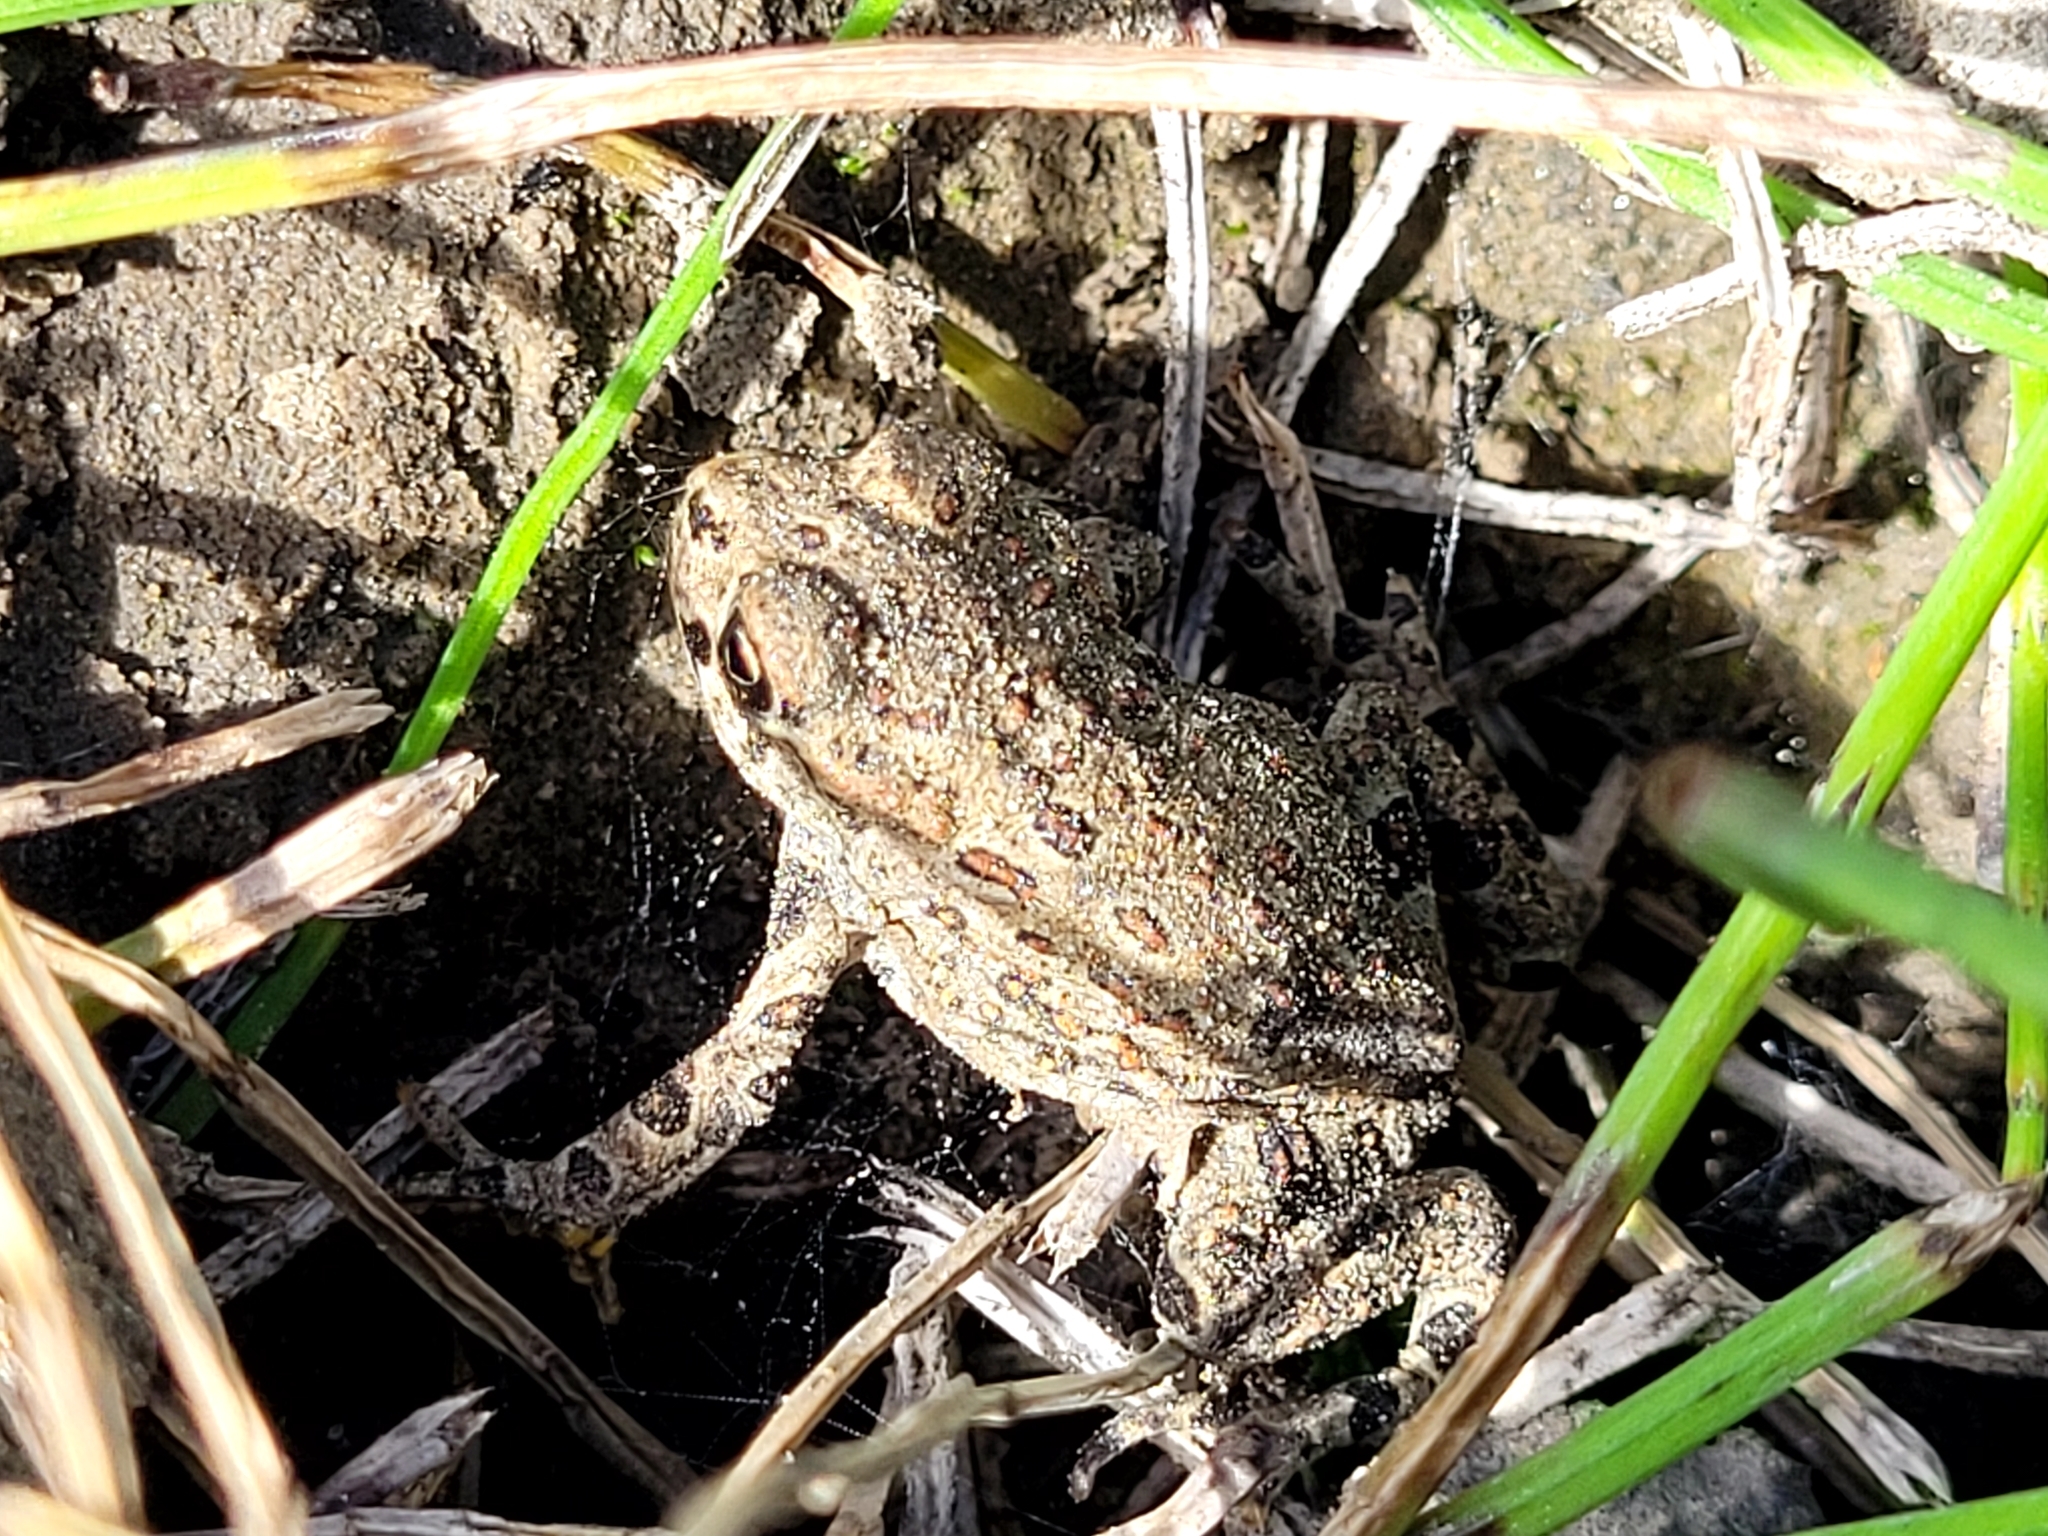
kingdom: Animalia
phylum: Chordata
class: Amphibia
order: Anura
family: Bufonidae
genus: Anaxyrus
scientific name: Anaxyrus boreas
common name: Western toad
